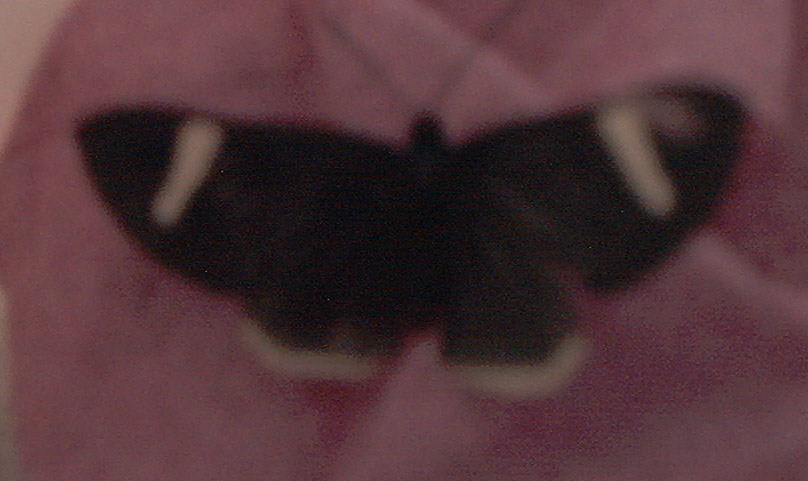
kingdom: Animalia
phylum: Arthropoda
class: Insecta
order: Lepidoptera
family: Lycaenidae
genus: Melanis
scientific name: Melanis xenia
